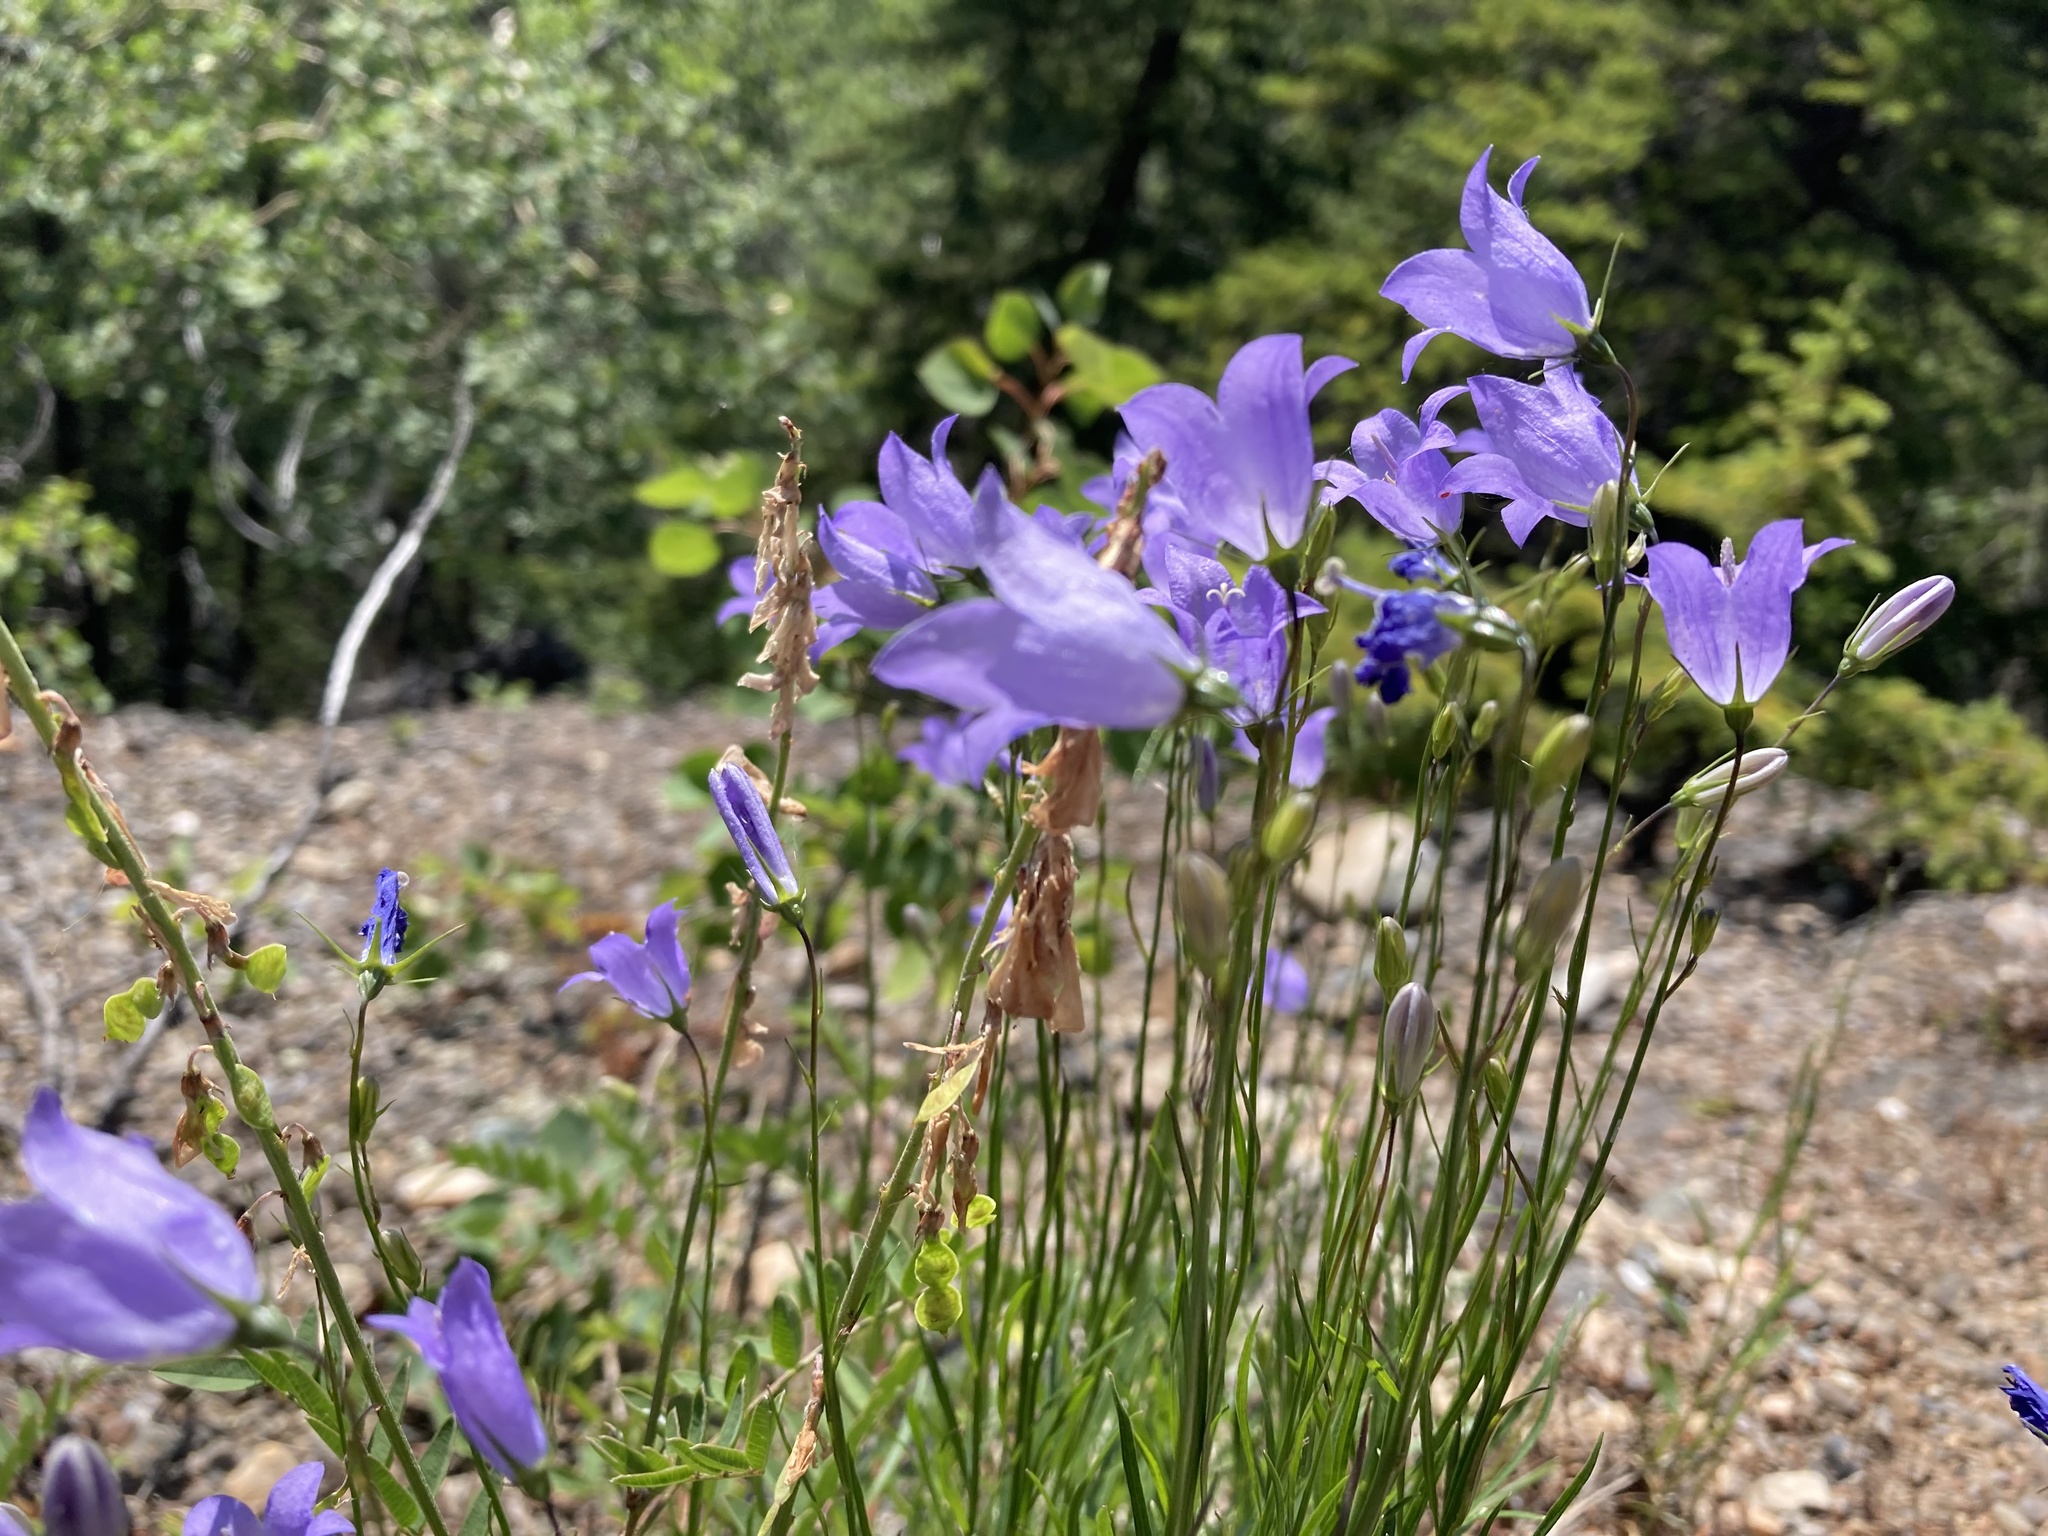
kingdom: Plantae
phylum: Tracheophyta
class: Magnoliopsida
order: Asterales
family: Campanulaceae
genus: Campanula
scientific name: Campanula alaskana
